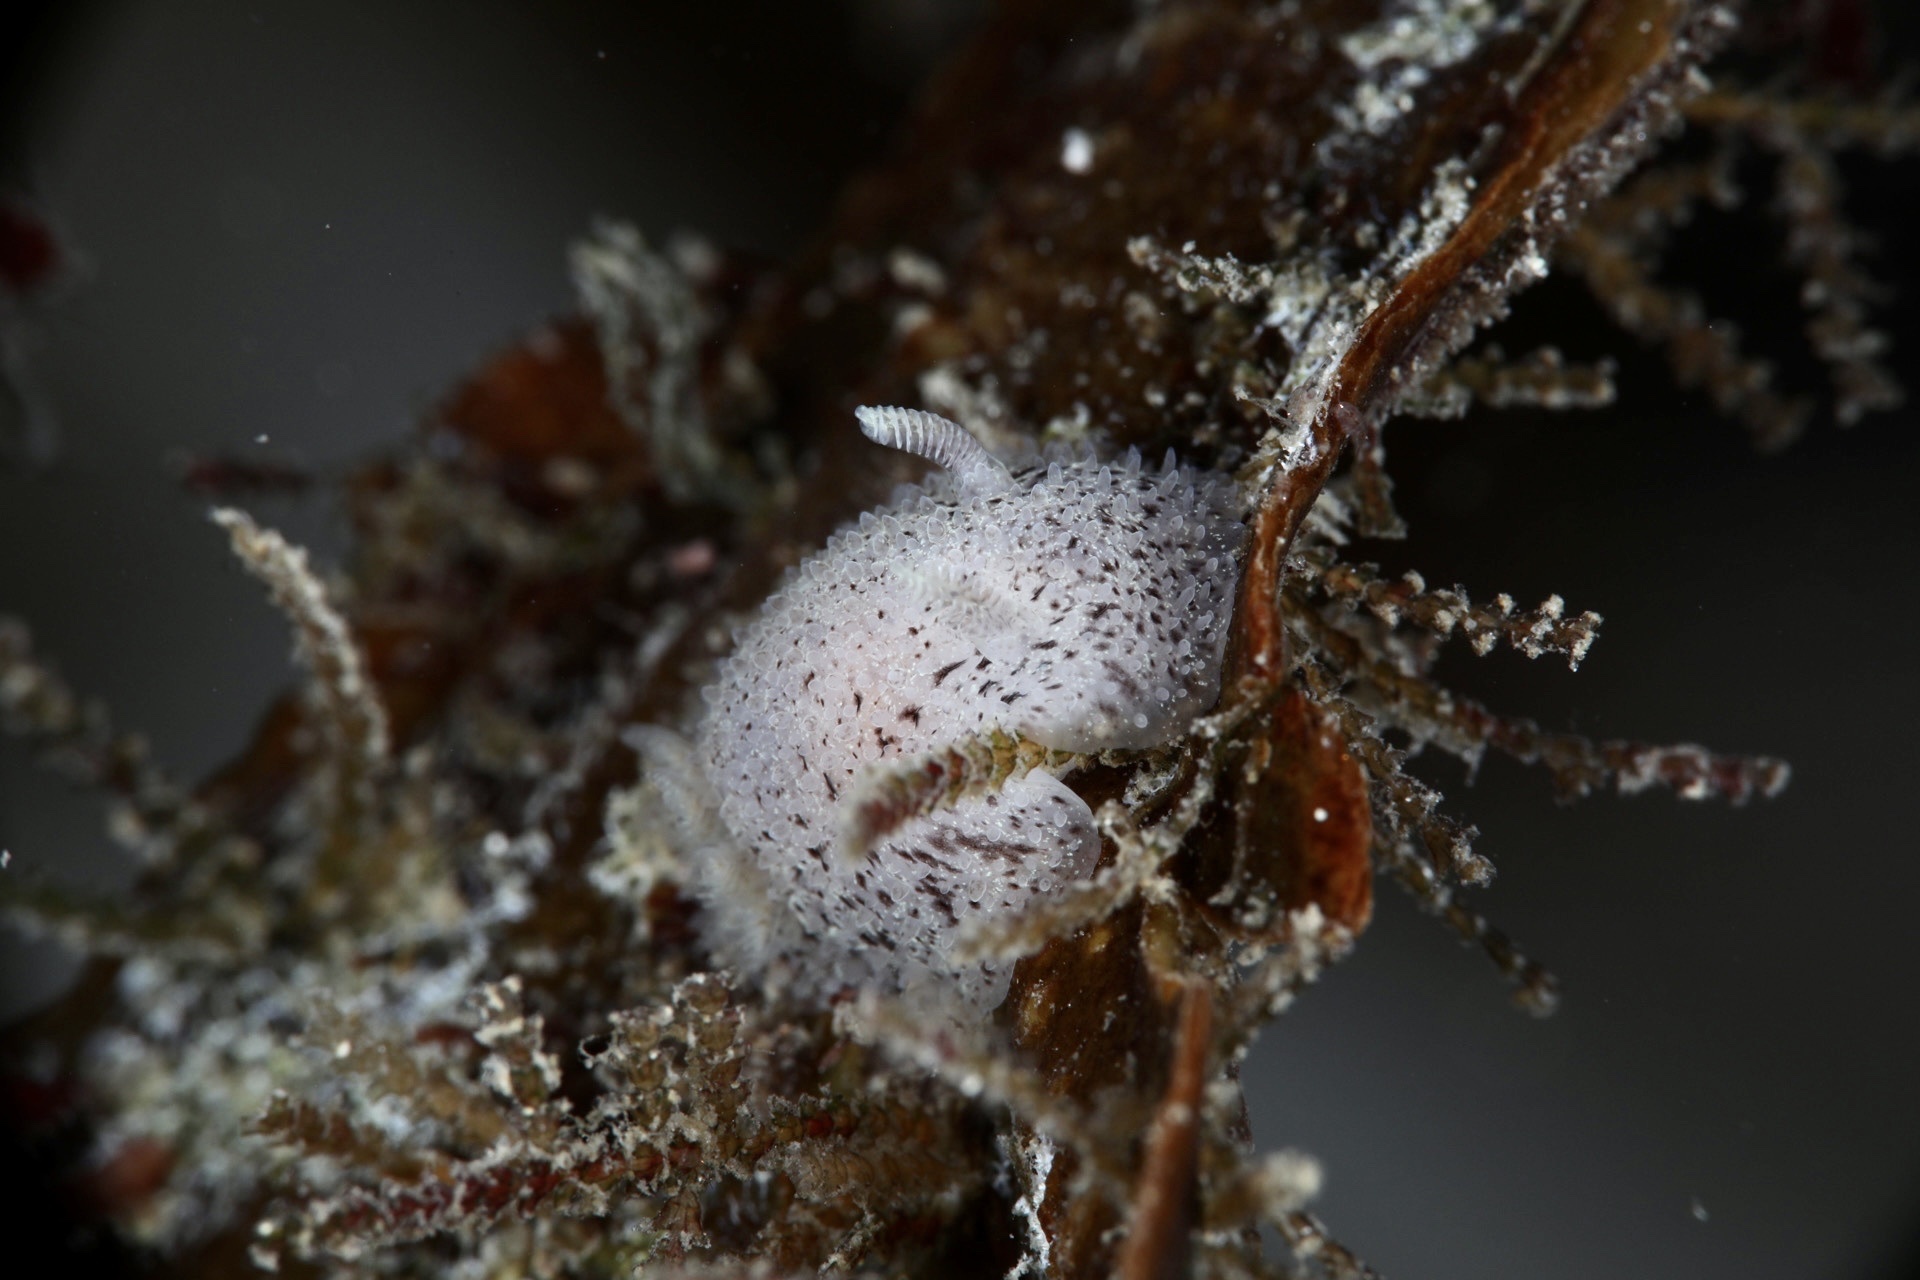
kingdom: Animalia
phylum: Mollusca
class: Gastropoda
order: Nudibranchia
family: Onchidorididae
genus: Acanthodoris
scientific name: Acanthodoris pilosa
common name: Hairy spiny doris
